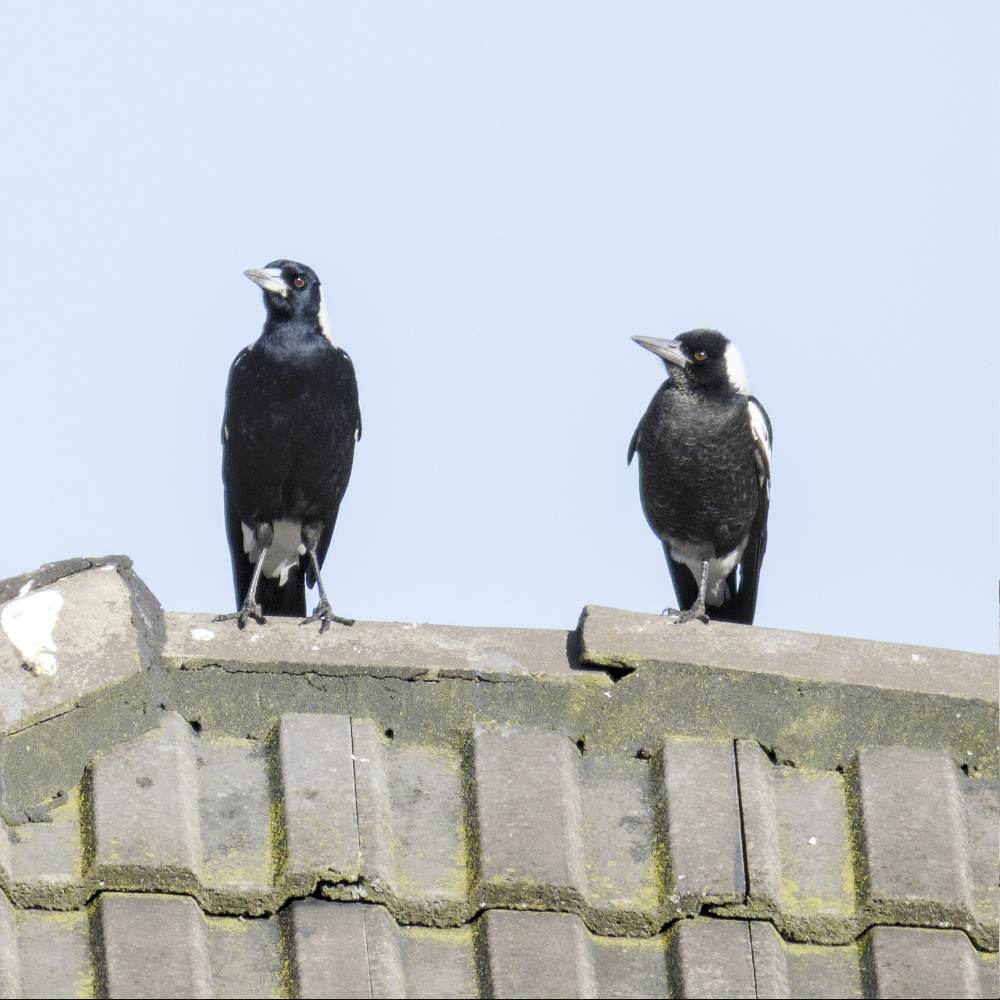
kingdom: Animalia
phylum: Chordata
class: Aves
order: Passeriformes
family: Cracticidae
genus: Gymnorhina
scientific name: Gymnorhina tibicen
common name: Australian magpie
